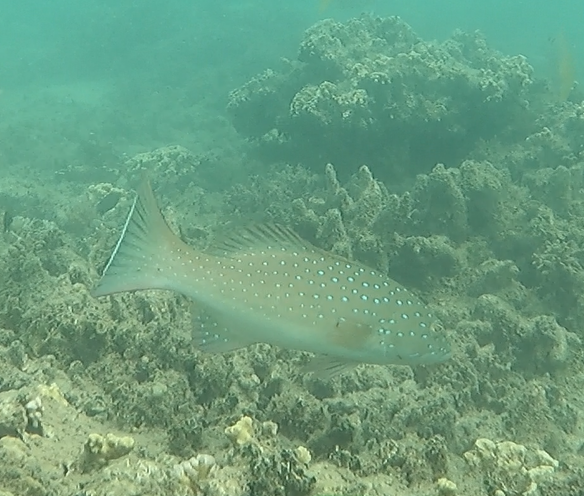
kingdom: Animalia
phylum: Chordata
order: Perciformes
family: Serranidae
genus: Plectropomus
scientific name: Plectropomus maculatus
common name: Spotted coralgrouper
